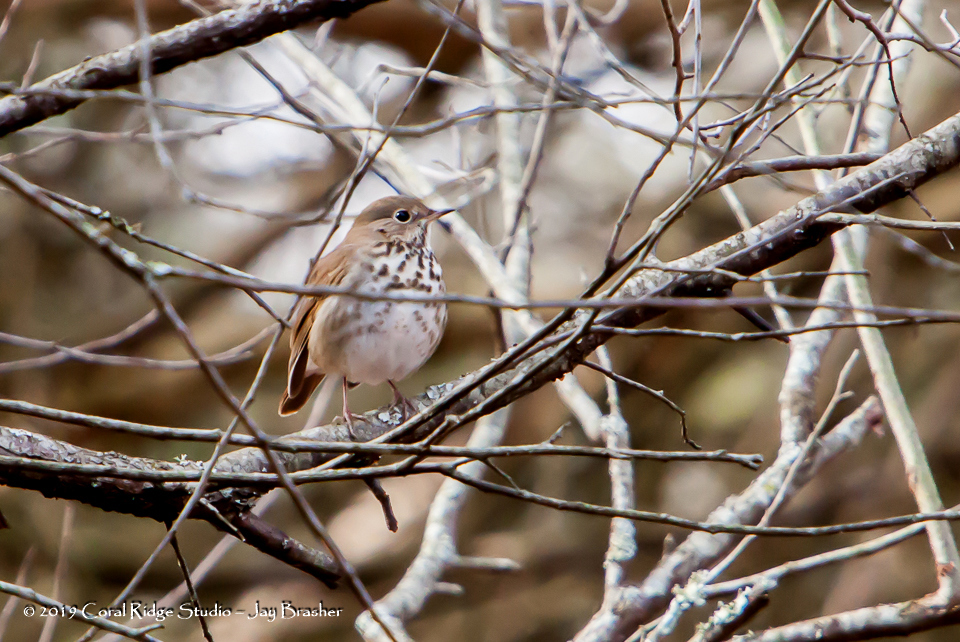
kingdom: Animalia
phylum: Chordata
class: Aves
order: Passeriformes
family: Turdidae
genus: Catharus
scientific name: Catharus guttatus
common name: Hermit thrush
